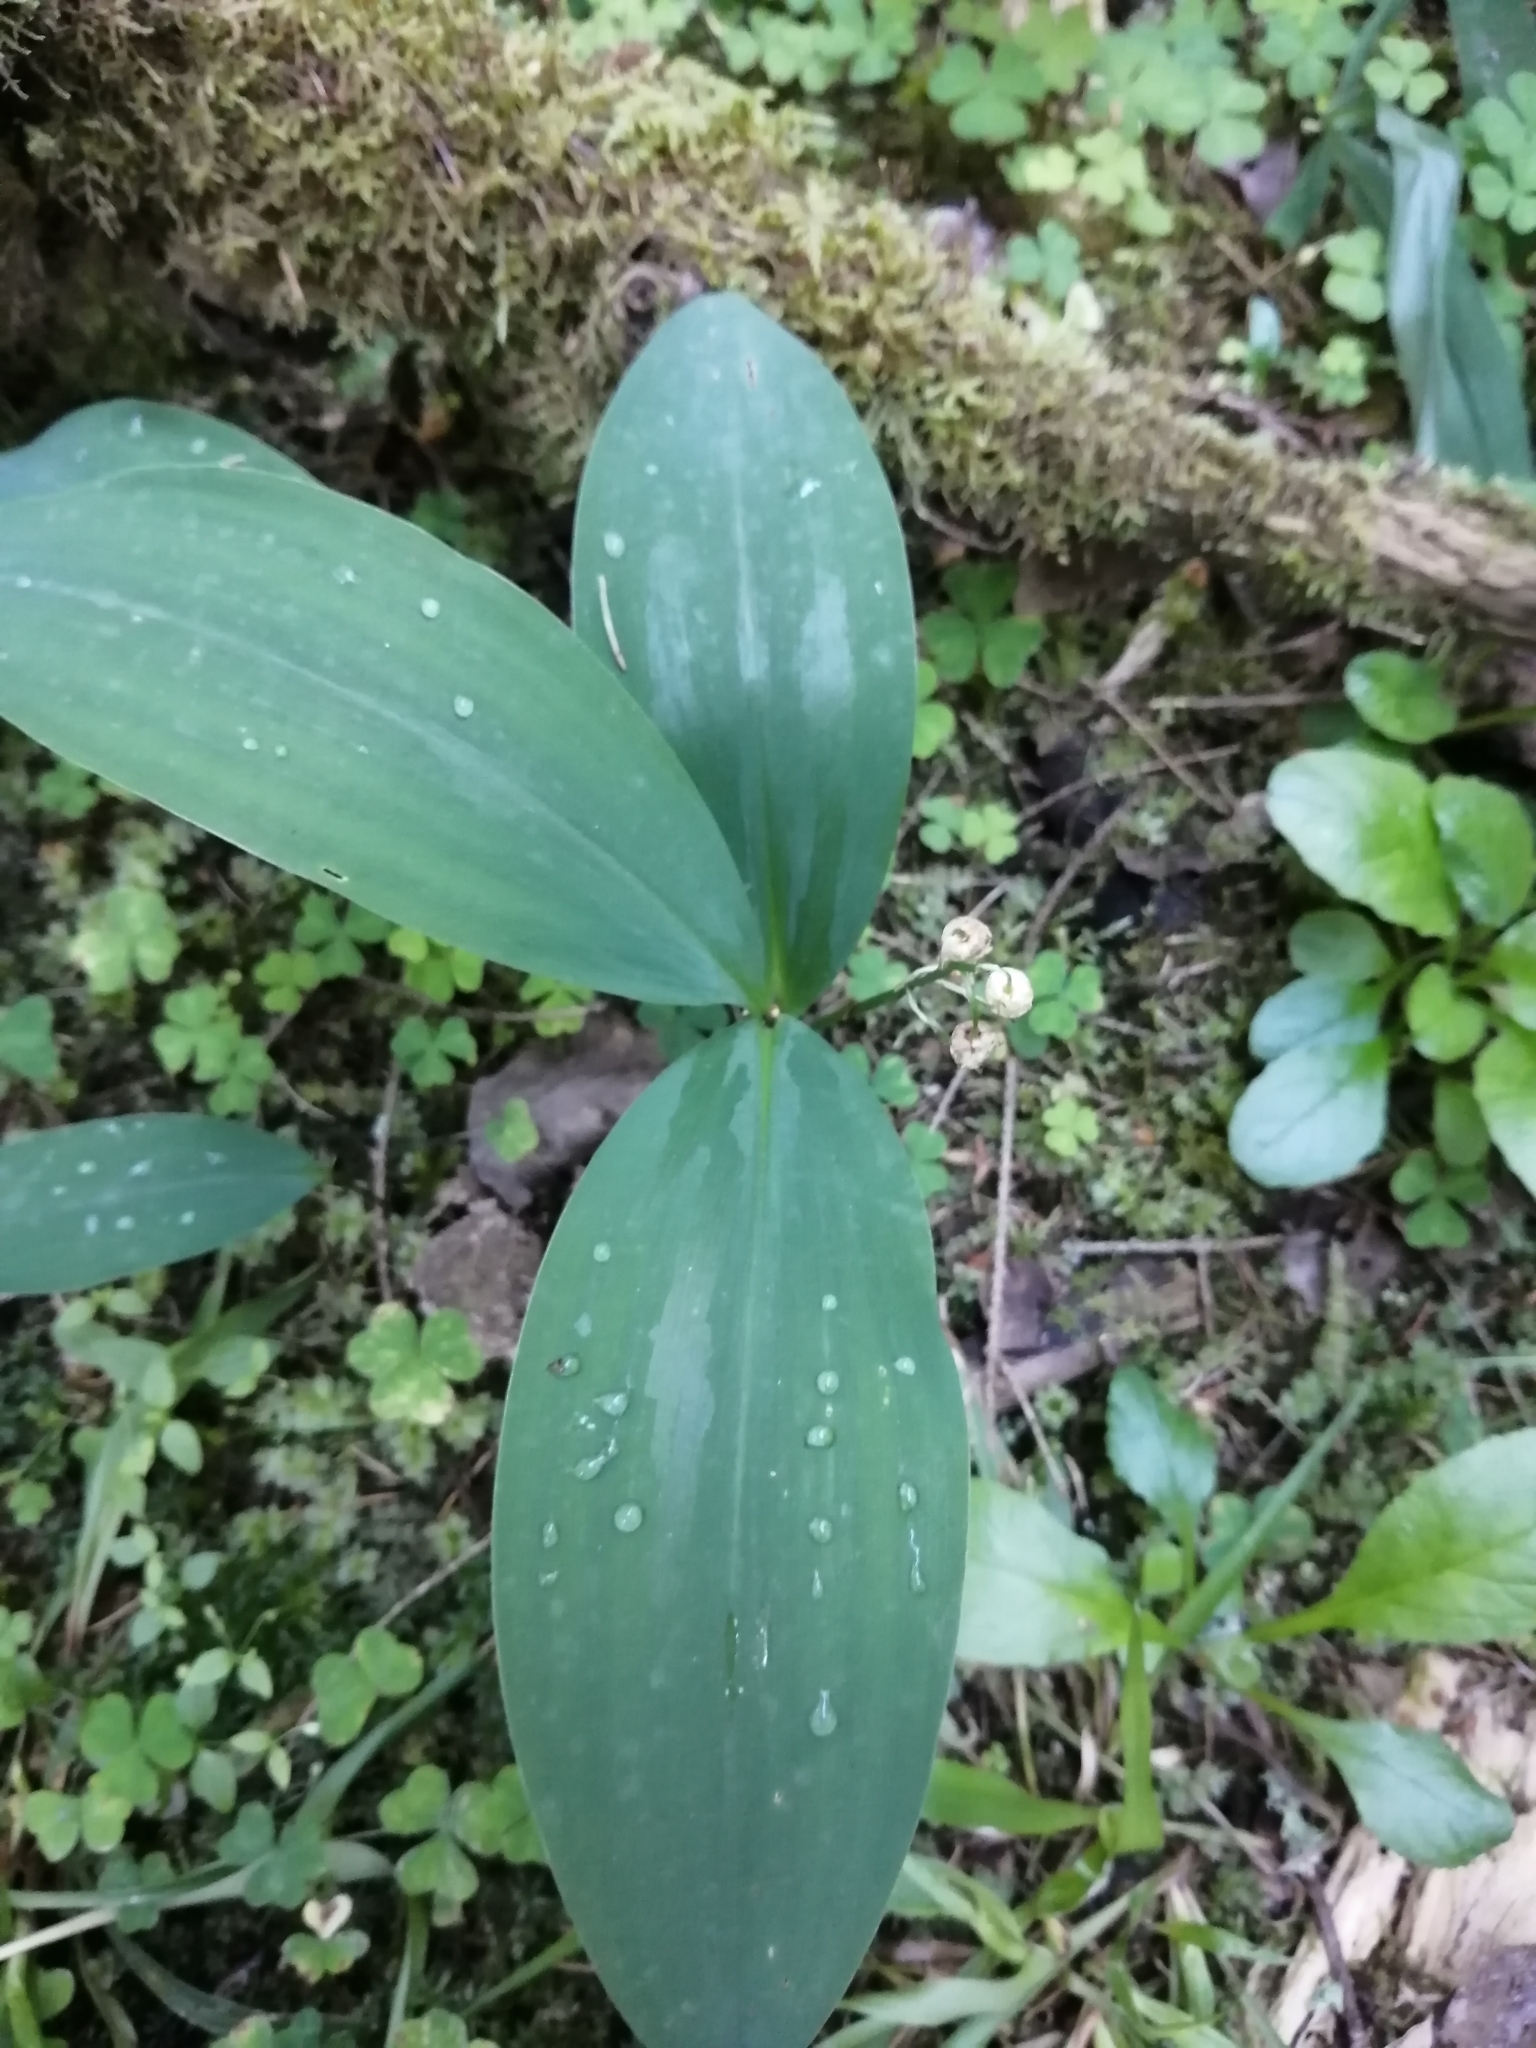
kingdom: Plantae
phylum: Tracheophyta
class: Liliopsida
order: Asparagales
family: Asparagaceae
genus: Convallaria
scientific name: Convallaria majalis
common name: Lily-of-the-valley
